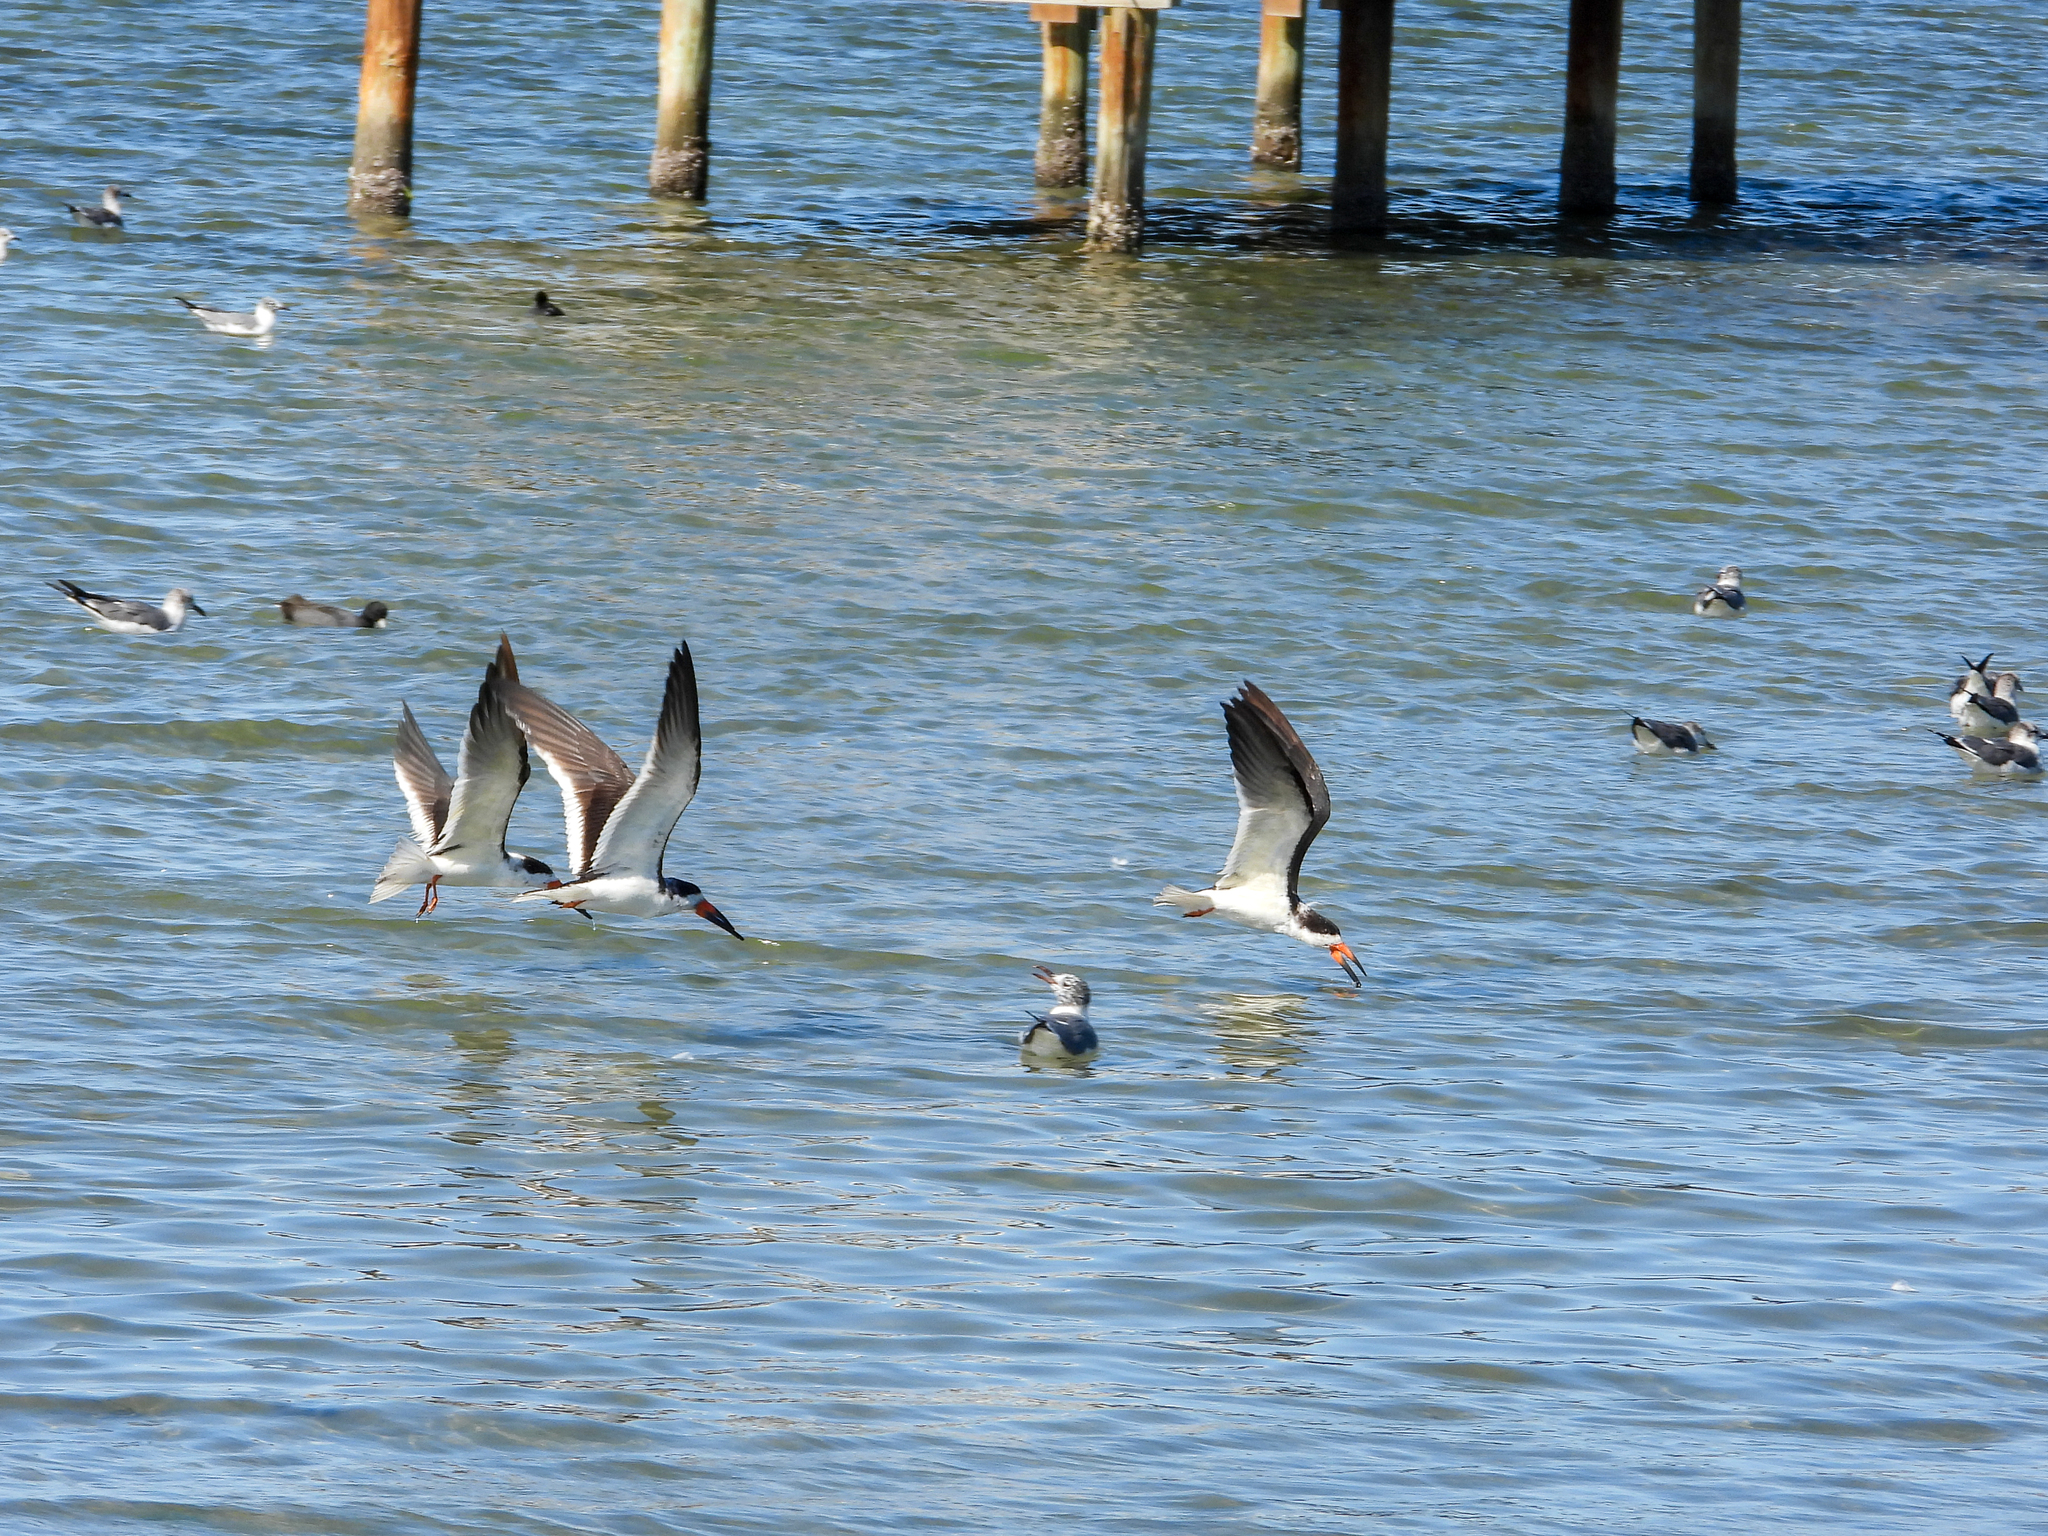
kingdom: Animalia
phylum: Chordata
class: Aves
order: Charadriiformes
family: Laridae
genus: Rynchops
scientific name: Rynchops niger
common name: Black skimmer
